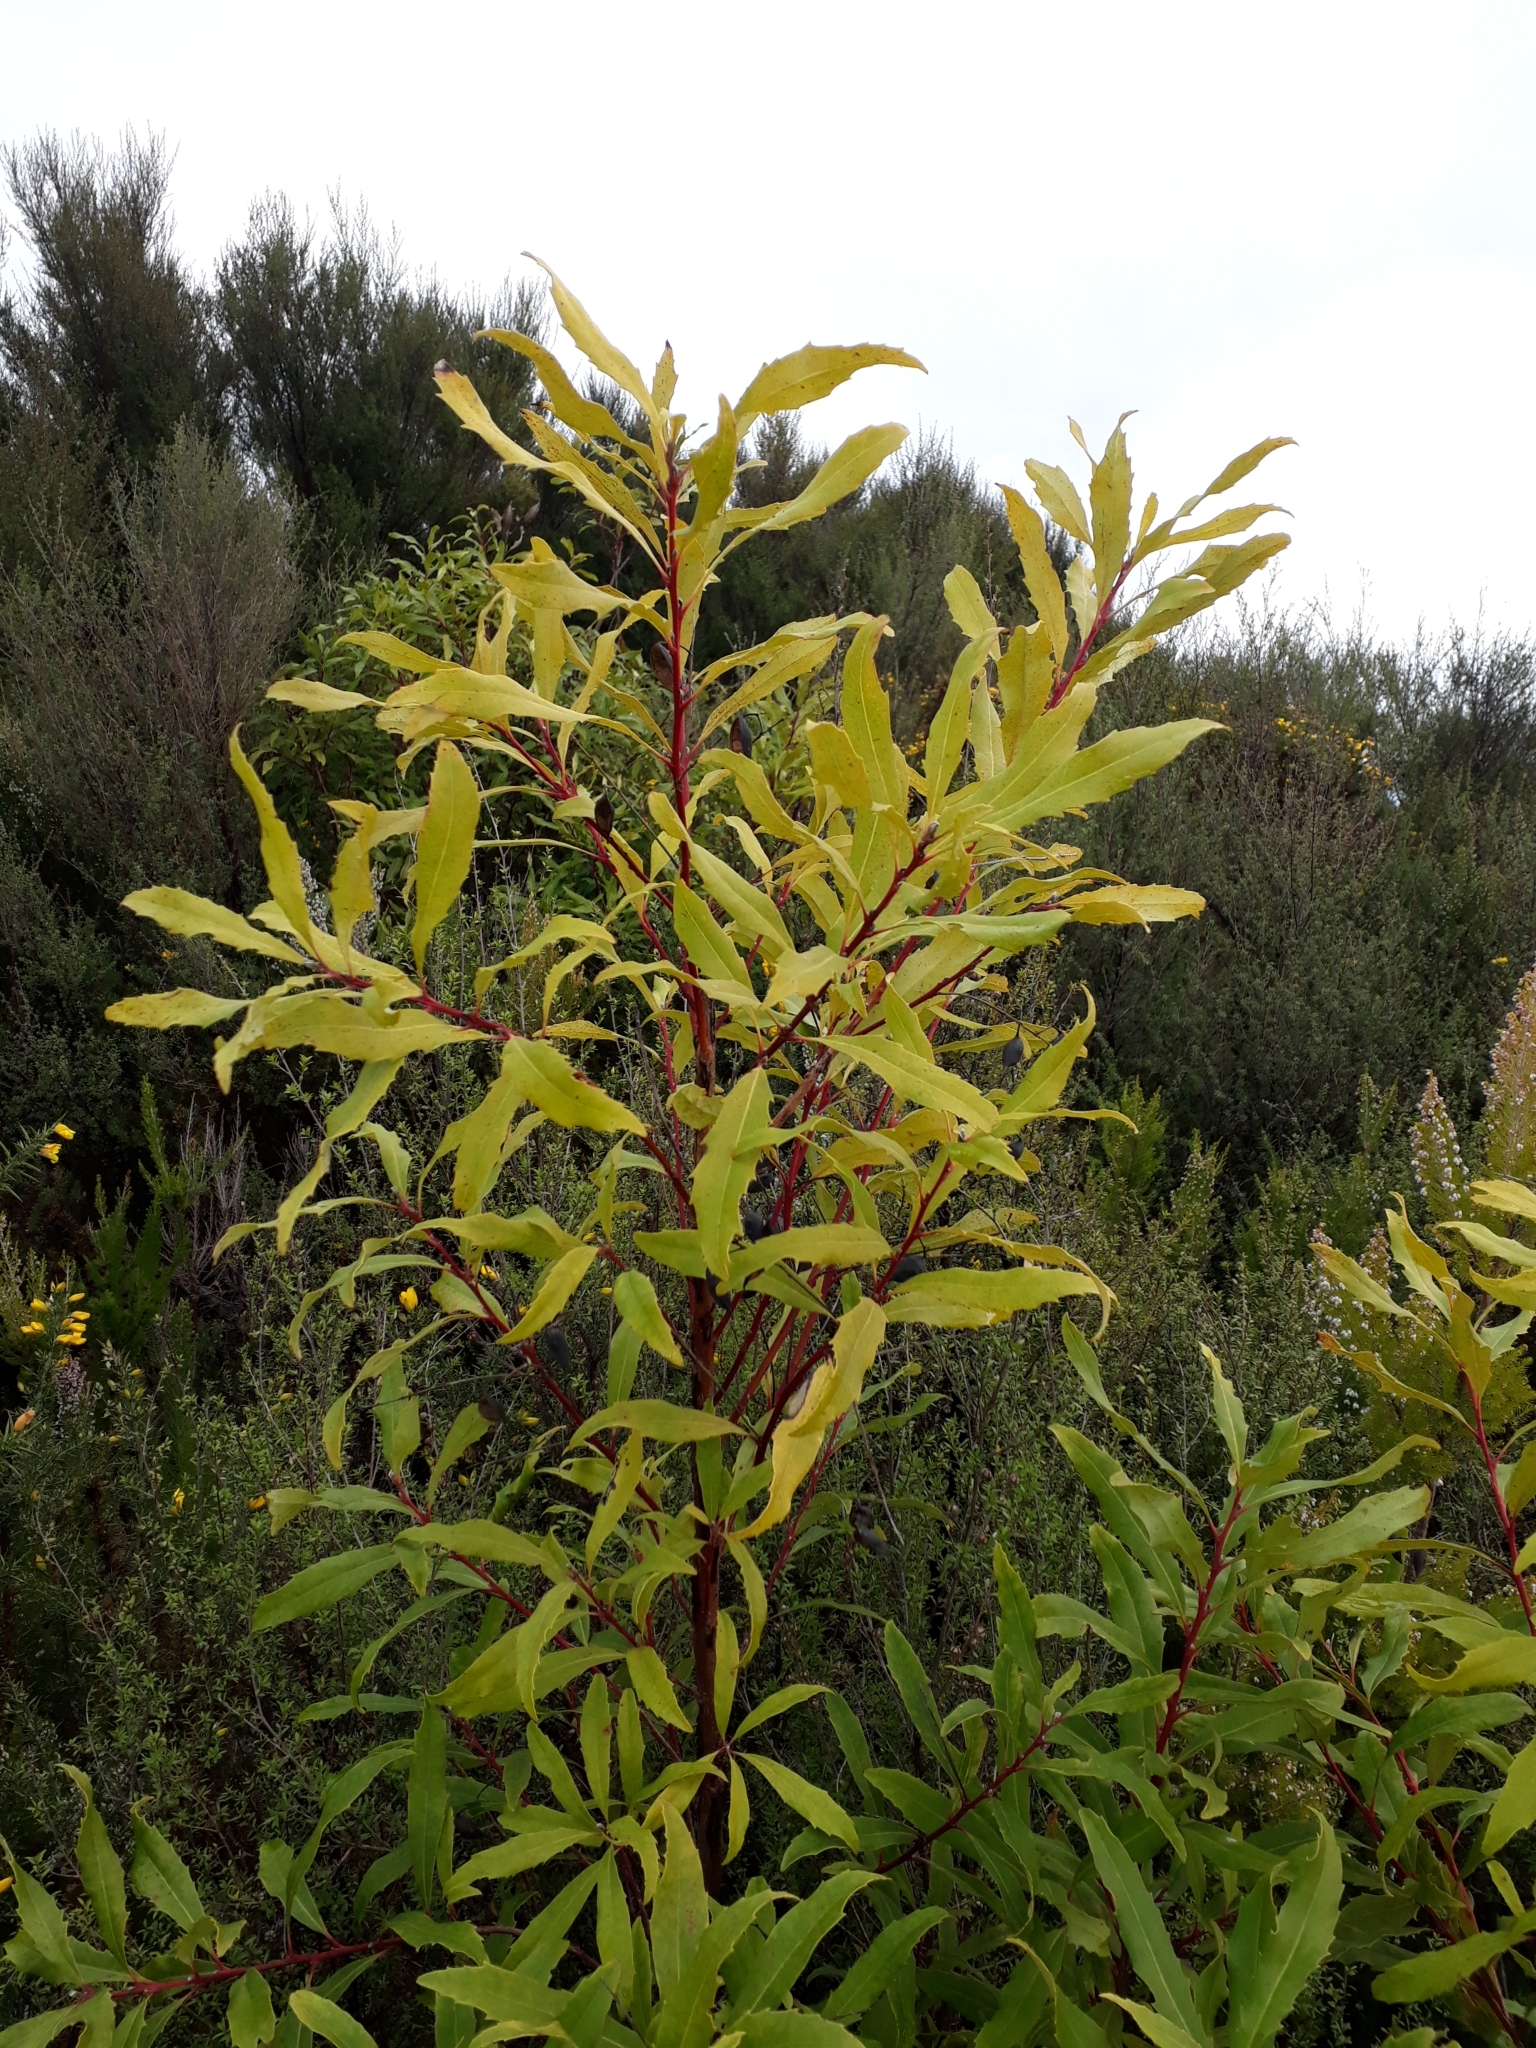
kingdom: Plantae
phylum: Tracheophyta
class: Magnoliopsida
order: Proteales
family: Proteaceae
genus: Lomatia
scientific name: Lomatia fraseri
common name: Forest lomatia
